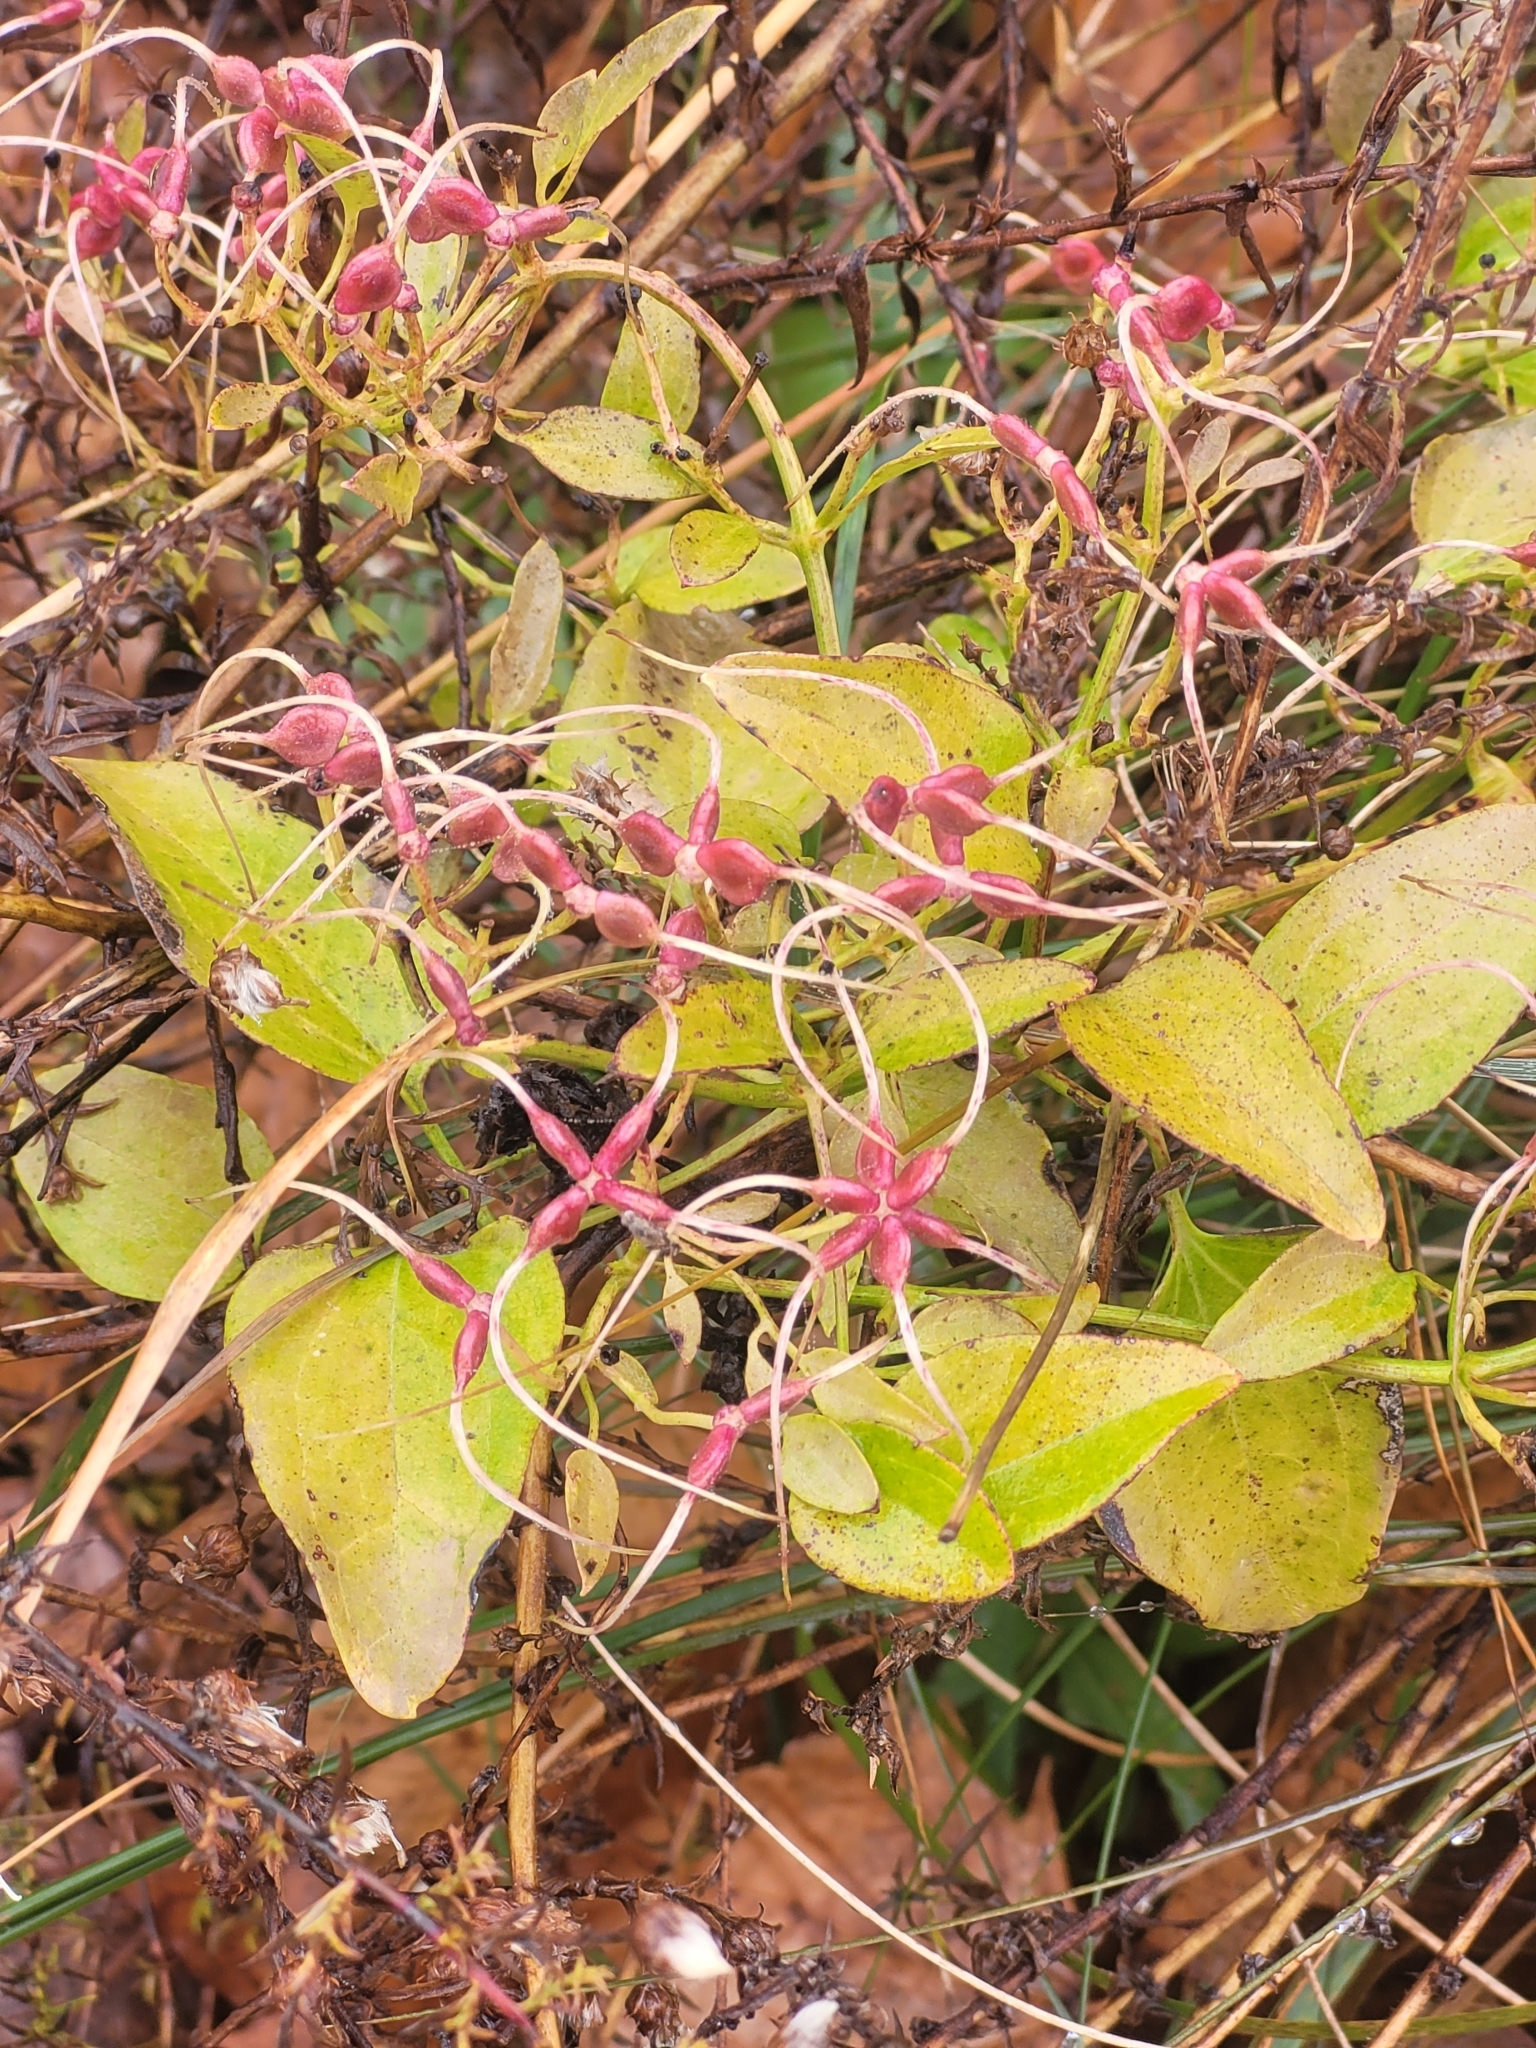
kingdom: Plantae
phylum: Tracheophyta
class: Magnoliopsida
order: Ranunculales
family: Ranunculaceae
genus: Clematis
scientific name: Clematis terniflora
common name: Sweet autumn clematis
